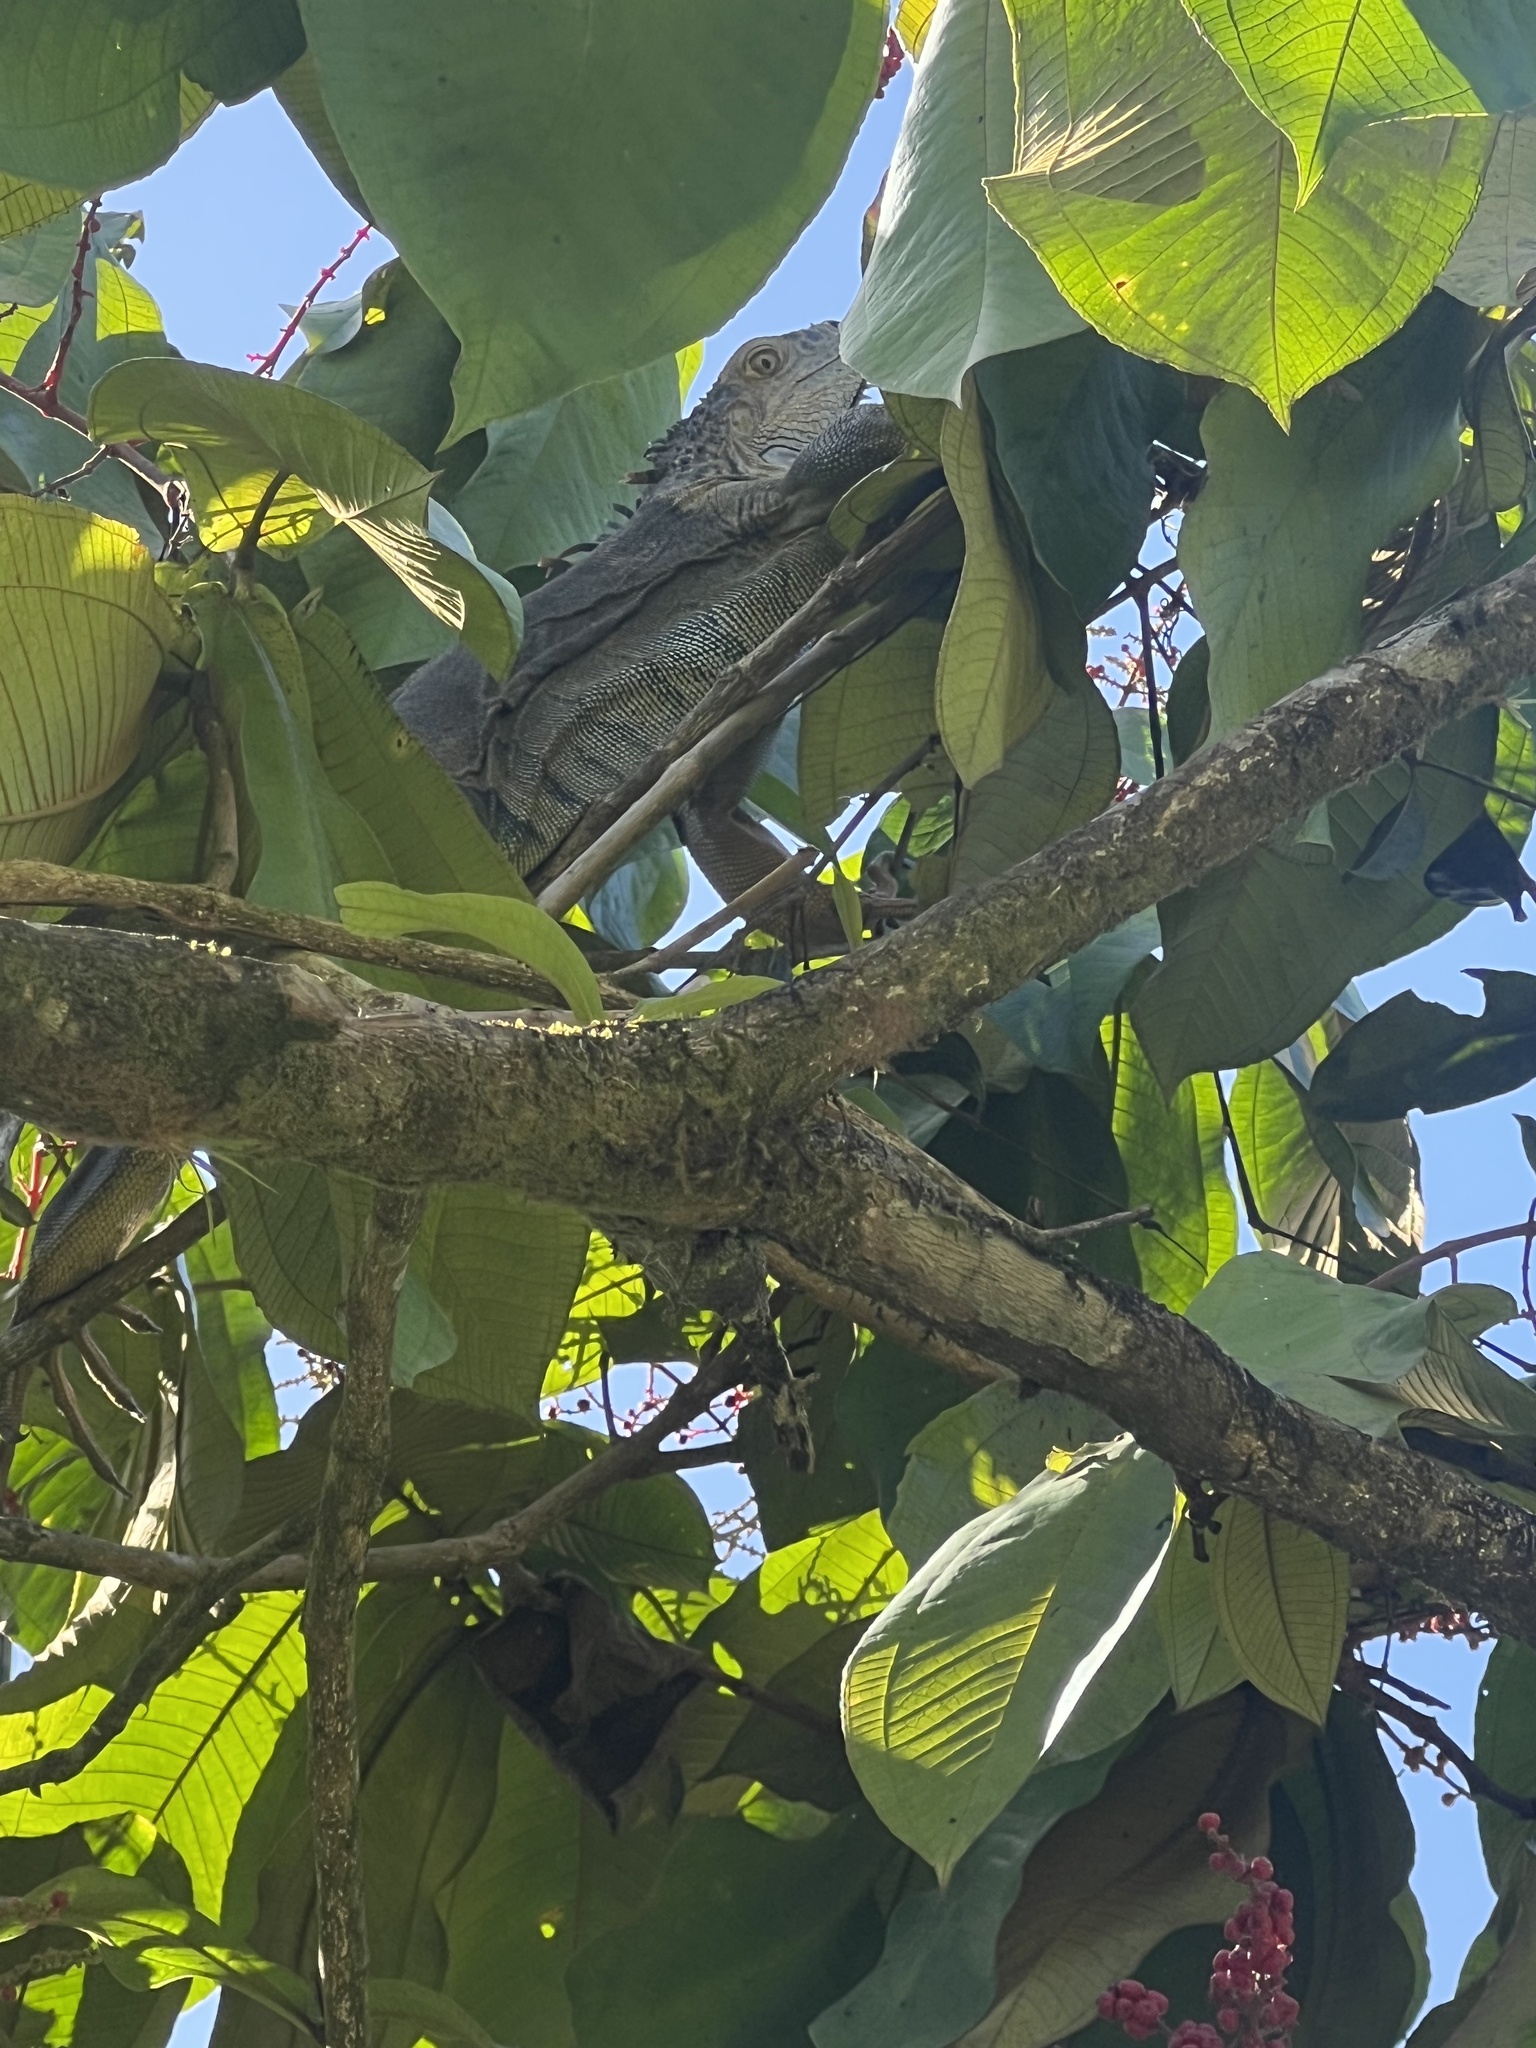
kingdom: Animalia
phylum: Chordata
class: Squamata
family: Iguanidae
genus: Iguana
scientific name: Iguana iguana
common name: Green iguana
